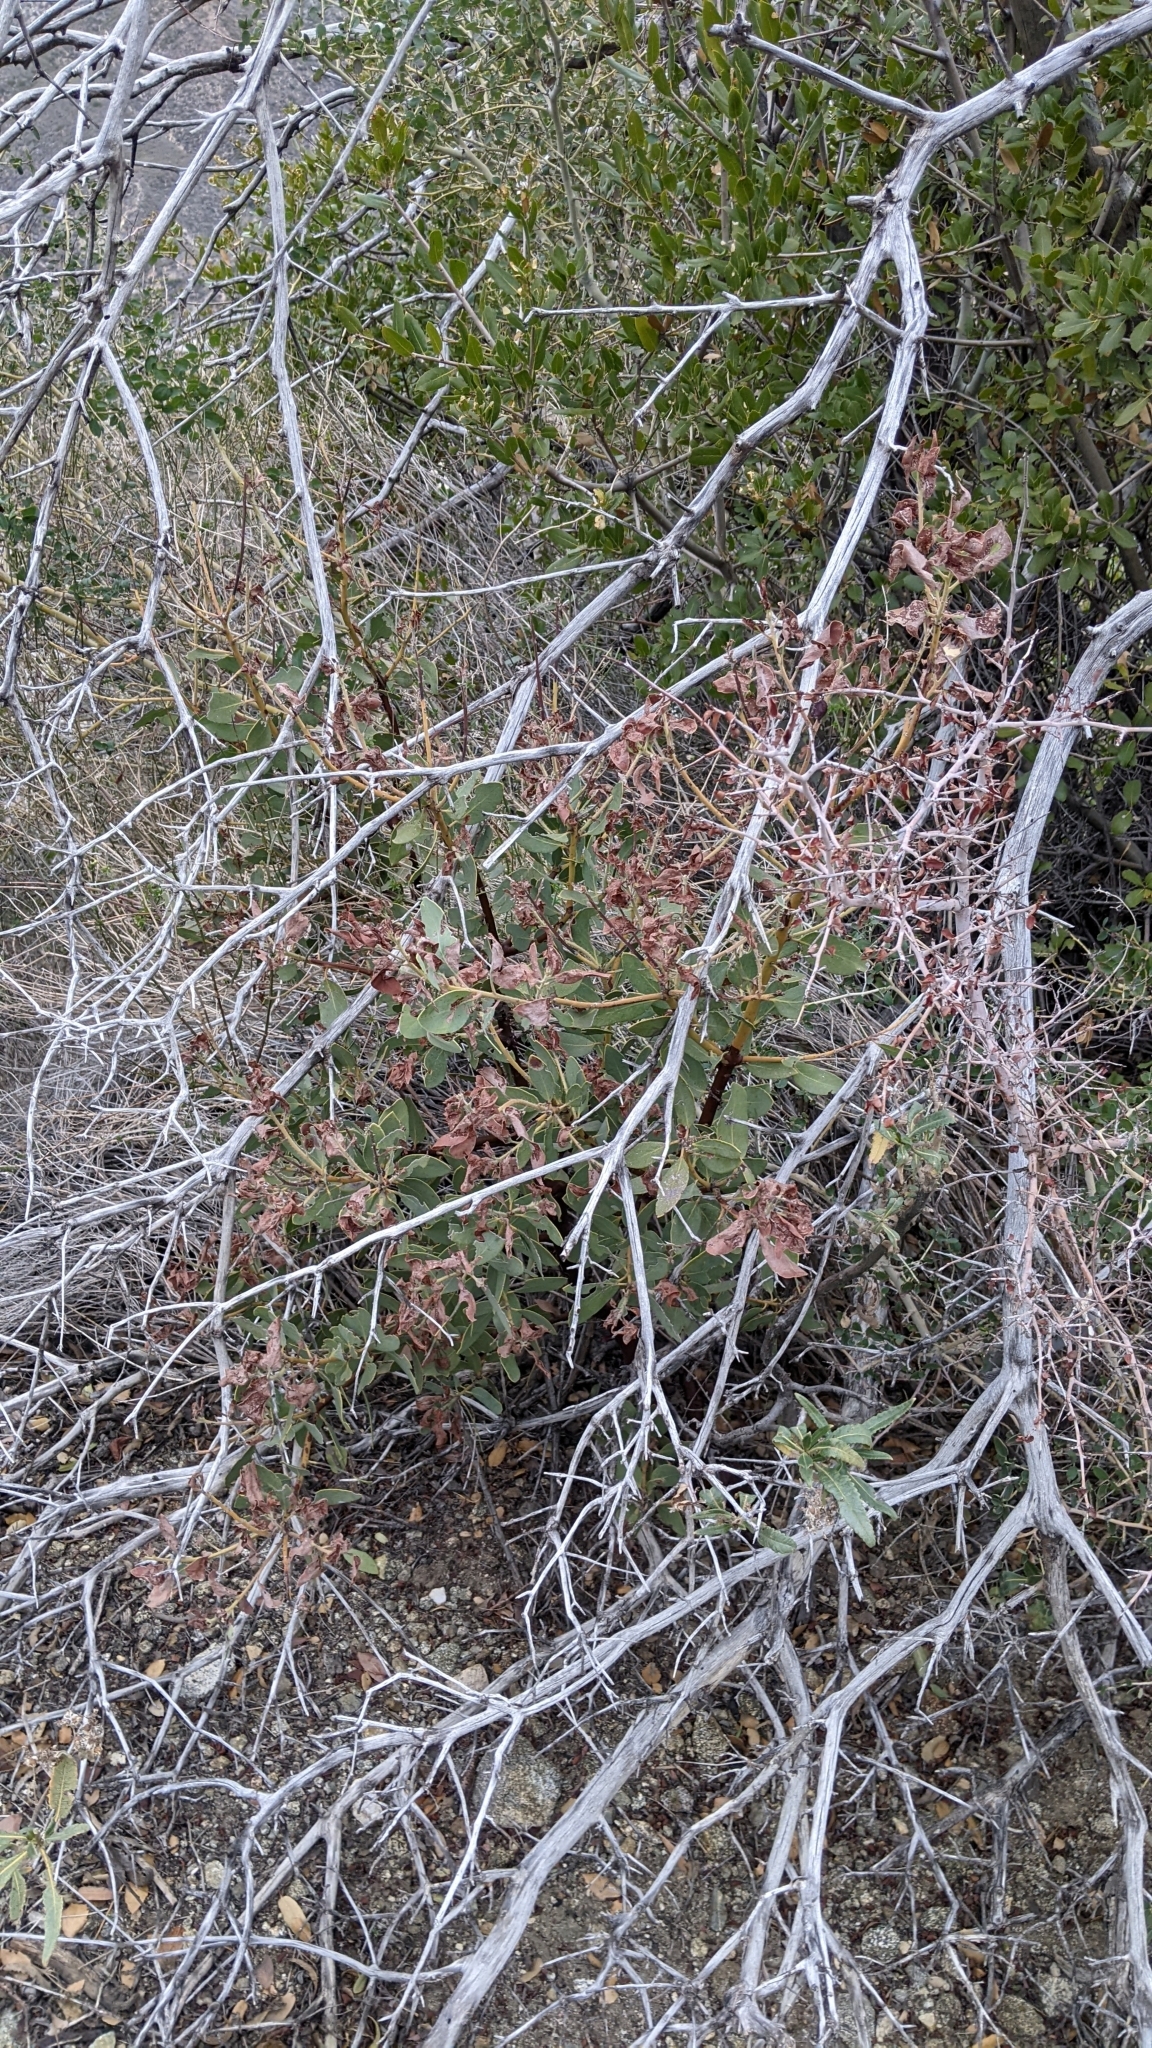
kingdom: Plantae
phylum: Tracheophyta
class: Magnoliopsida
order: Ericales
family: Ericaceae
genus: Arctostaphylos
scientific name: Arctostaphylos glandulosa
